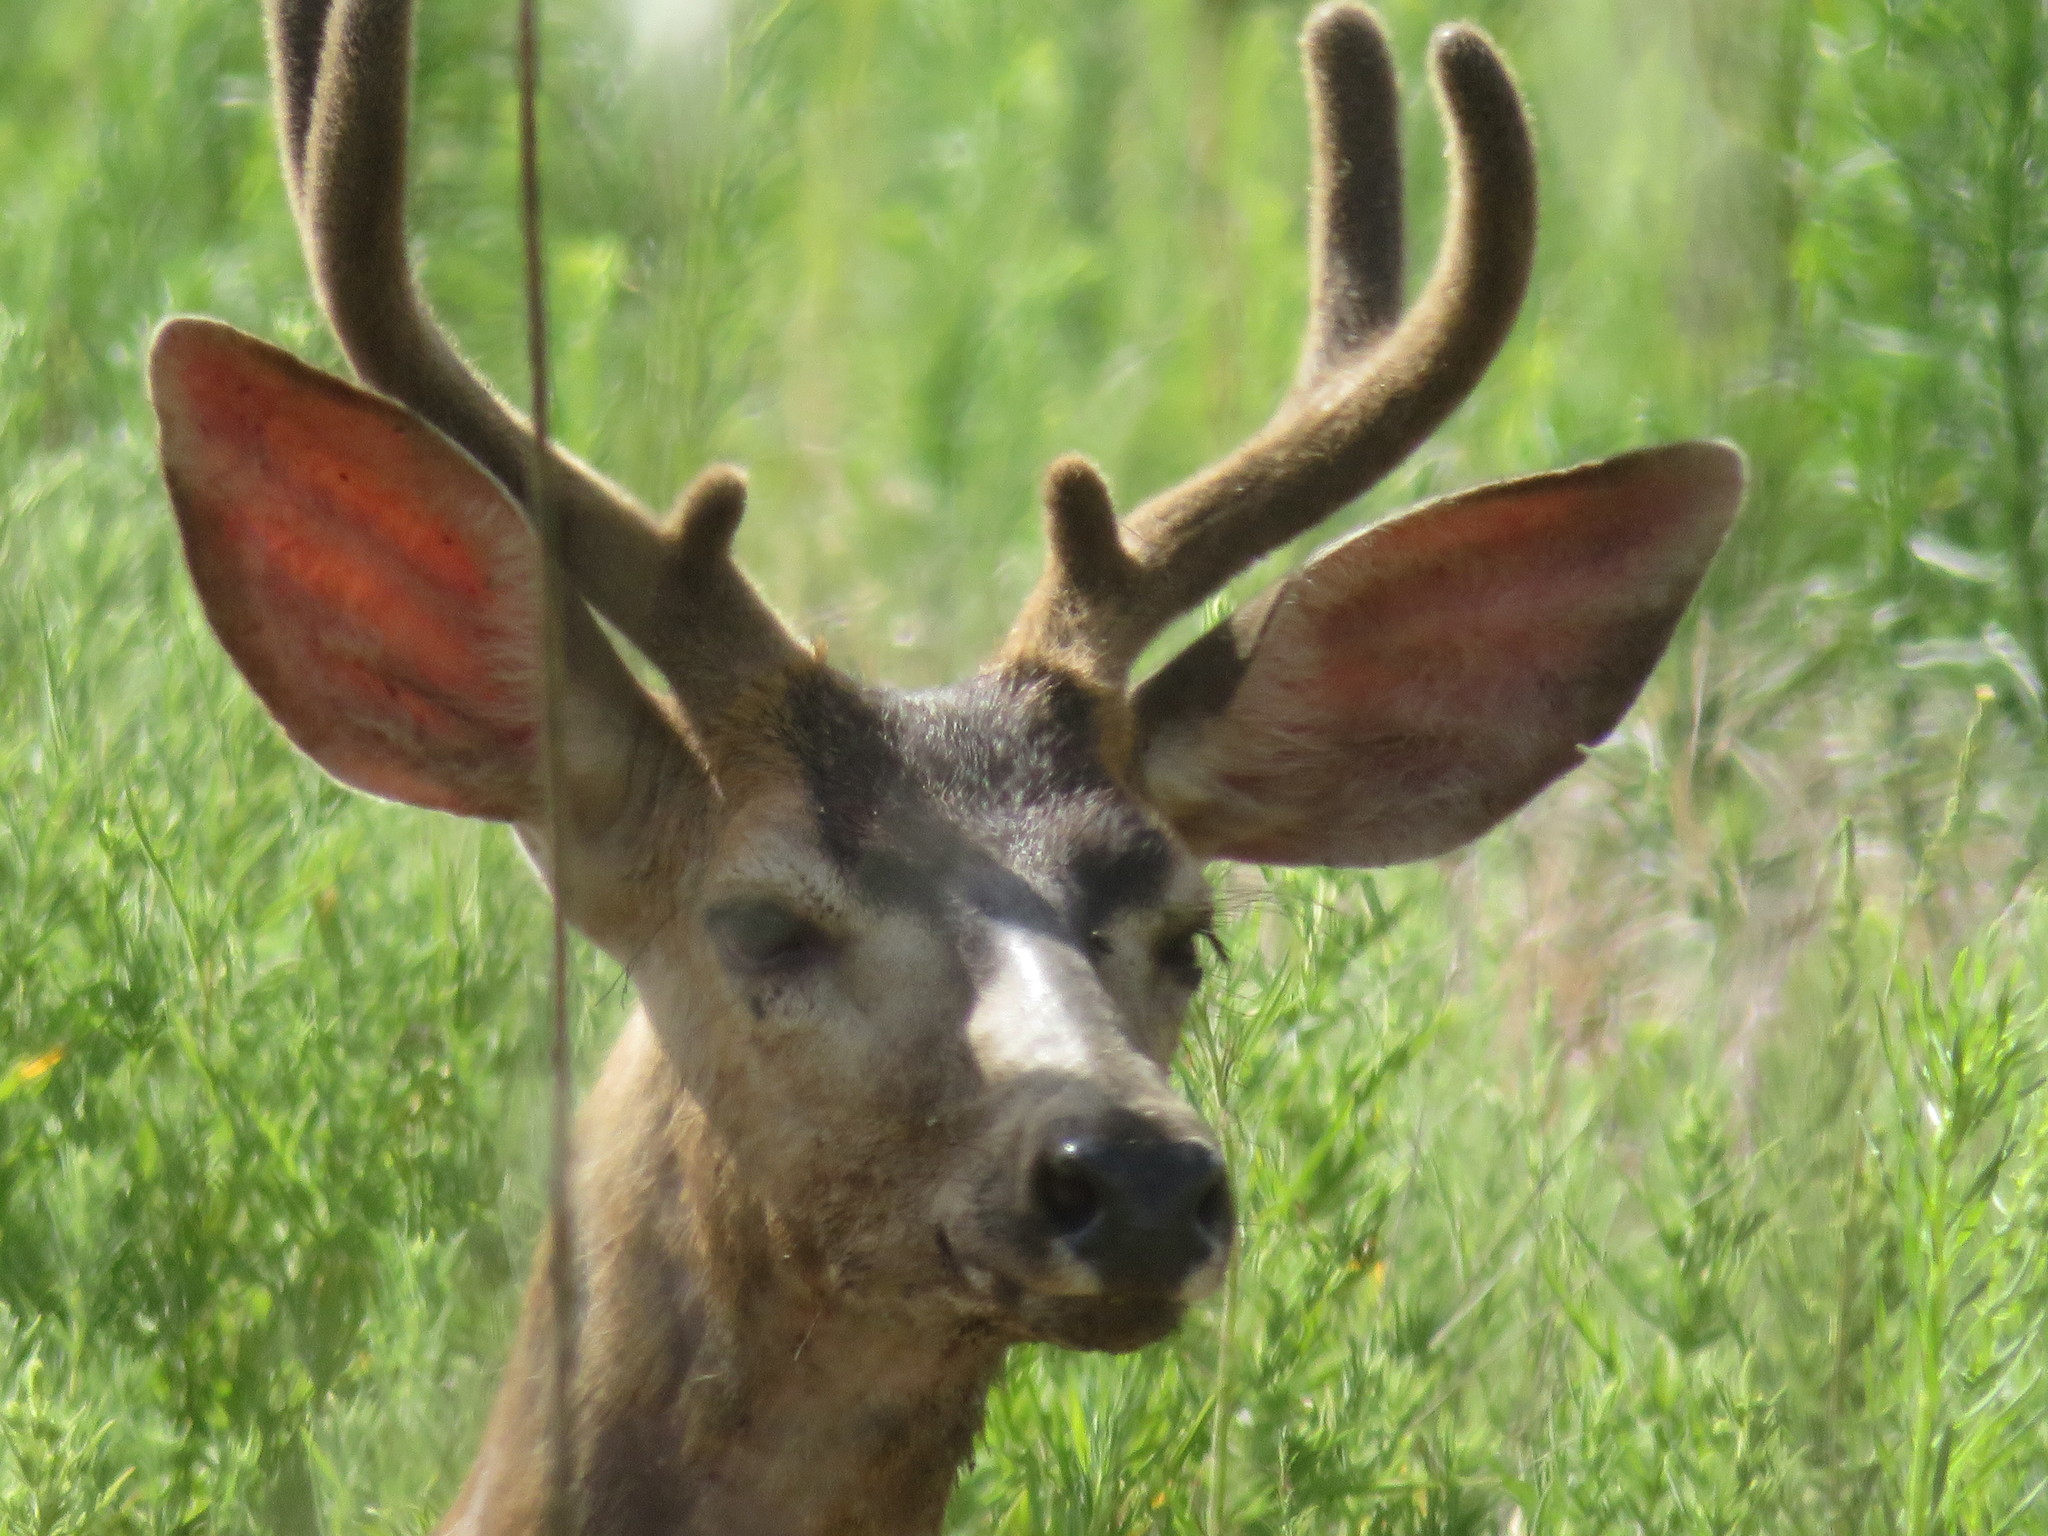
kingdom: Animalia
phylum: Chordata
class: Mammalia
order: Artiodactyla
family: Cervidae
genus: Odocoileus
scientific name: Odocoileus hemionus
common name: Mule deer
